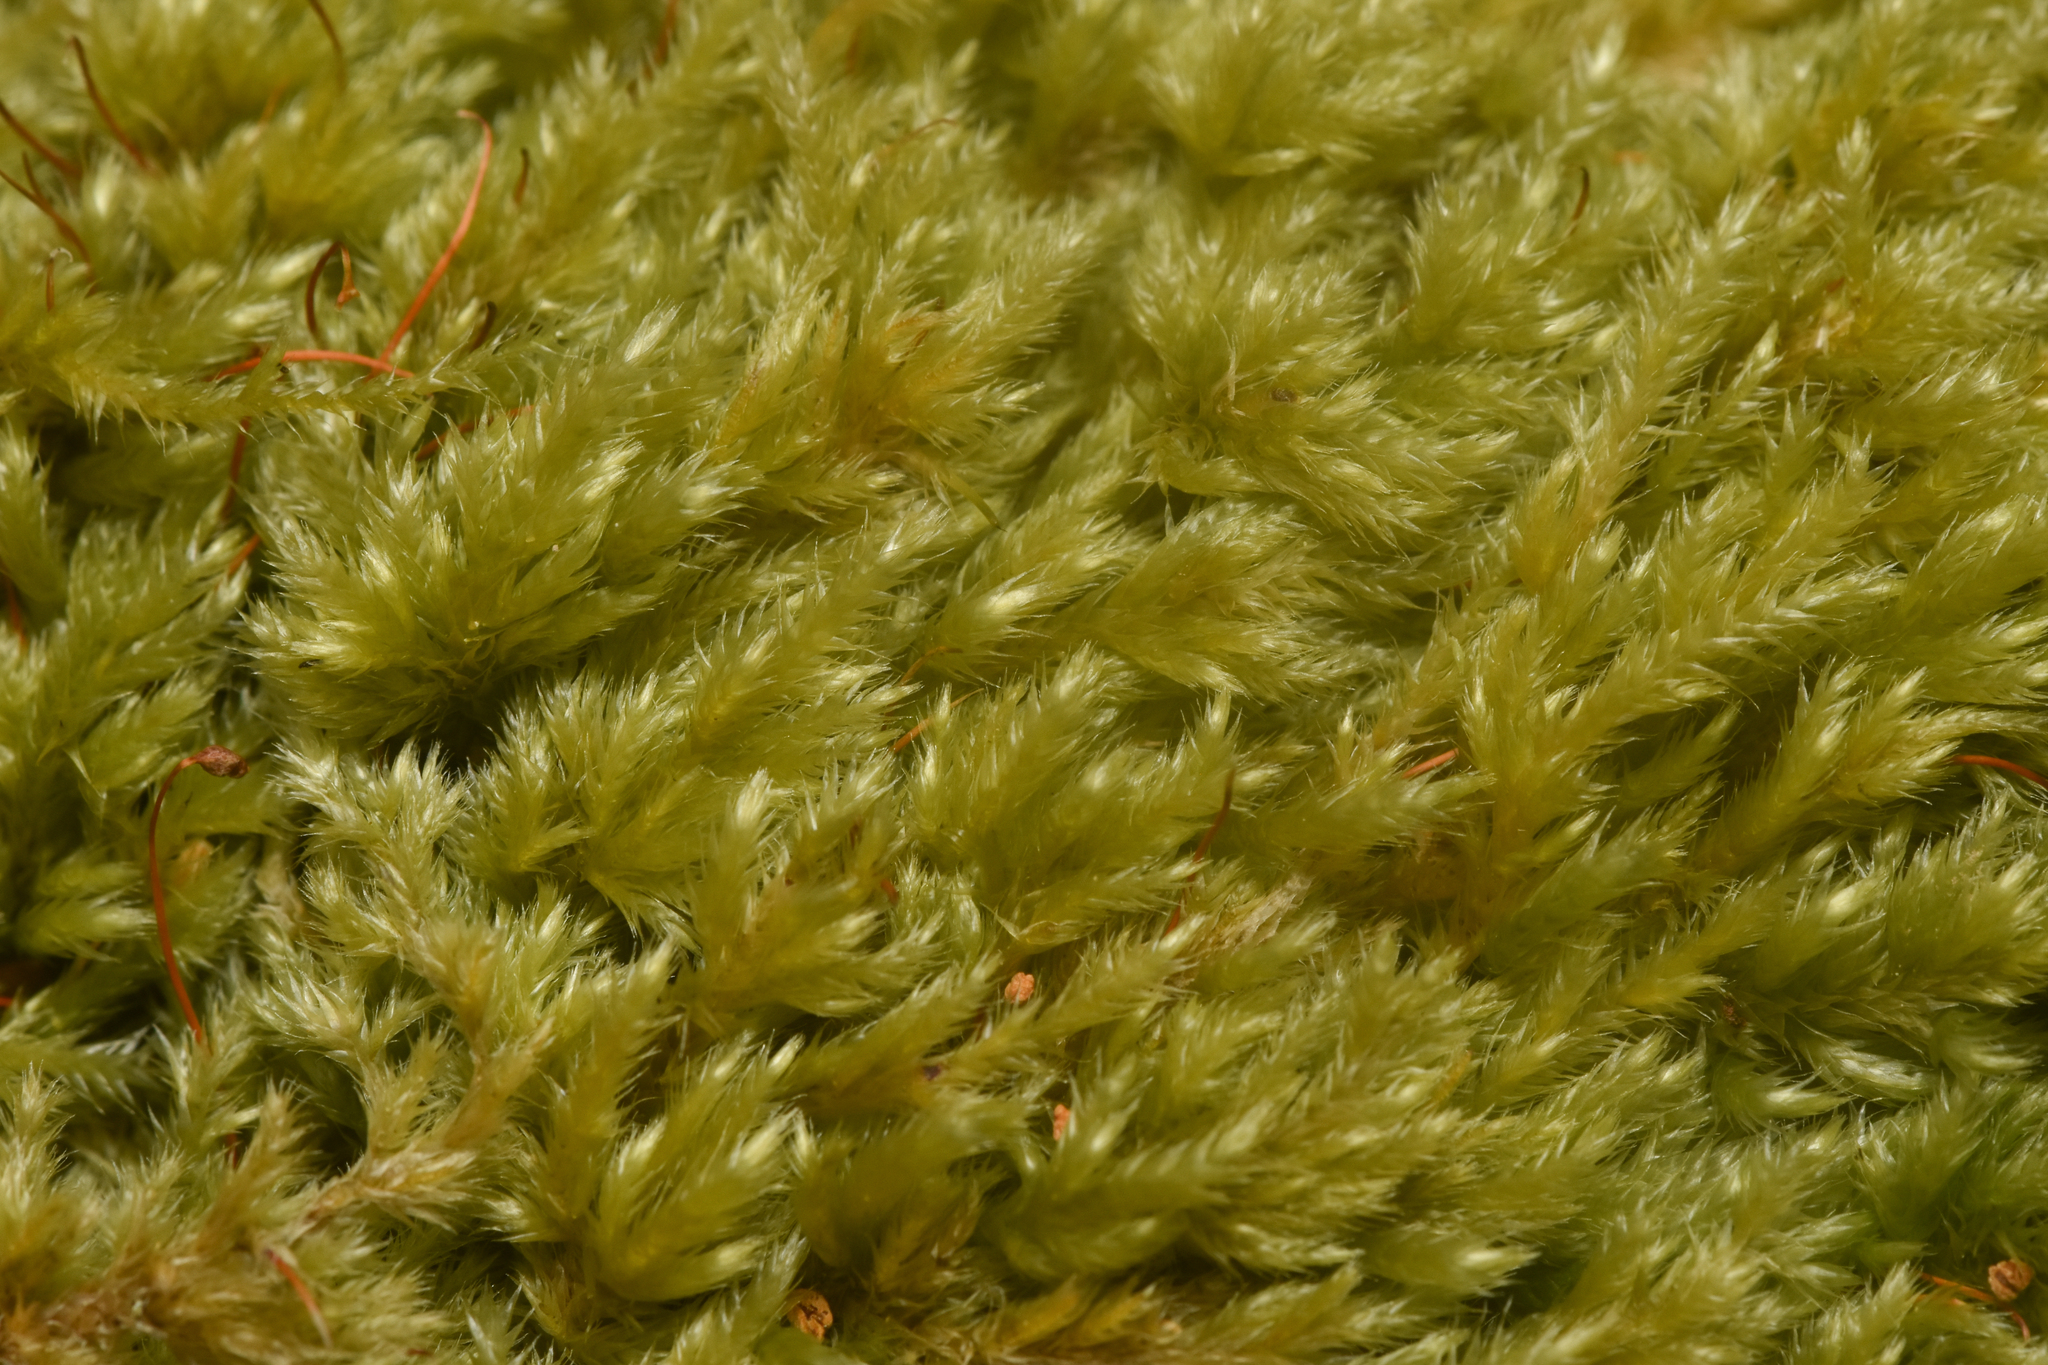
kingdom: Plantae
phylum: Bryophyta
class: Bryopsida
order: Hypnales
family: Lembophyllaceae
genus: Pseudisothecium
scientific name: Pseudisothecium stoloniferum
